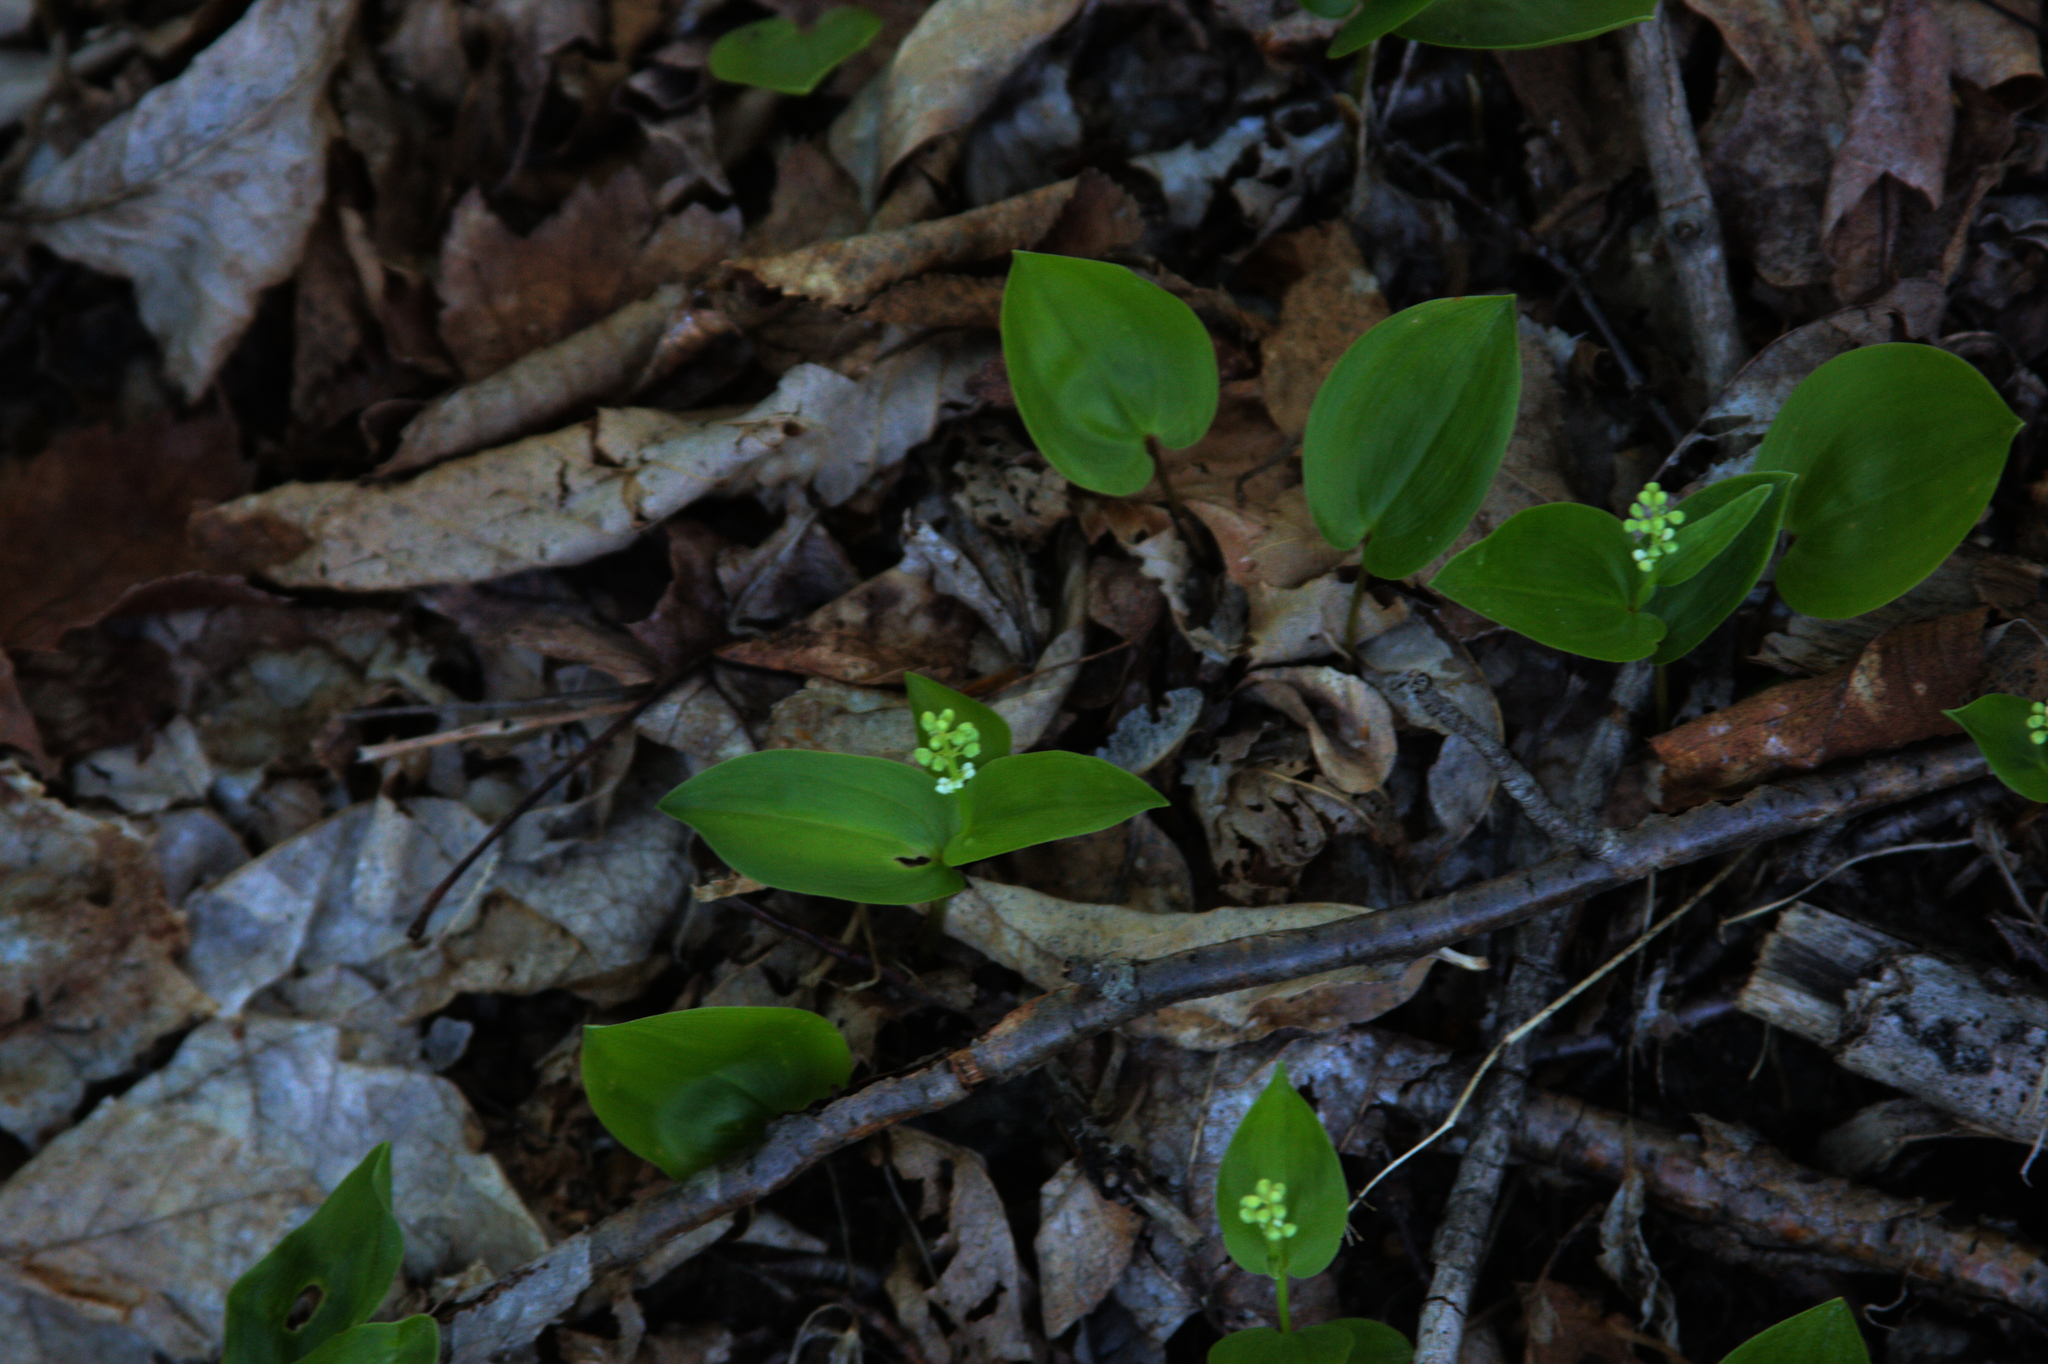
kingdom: Plantae
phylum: Tracheophyta
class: Liliopsida
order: Asparagales
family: Asparagaceae
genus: Maianthemum
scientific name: Maianthemum canadense
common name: False lily-of-the-valley
